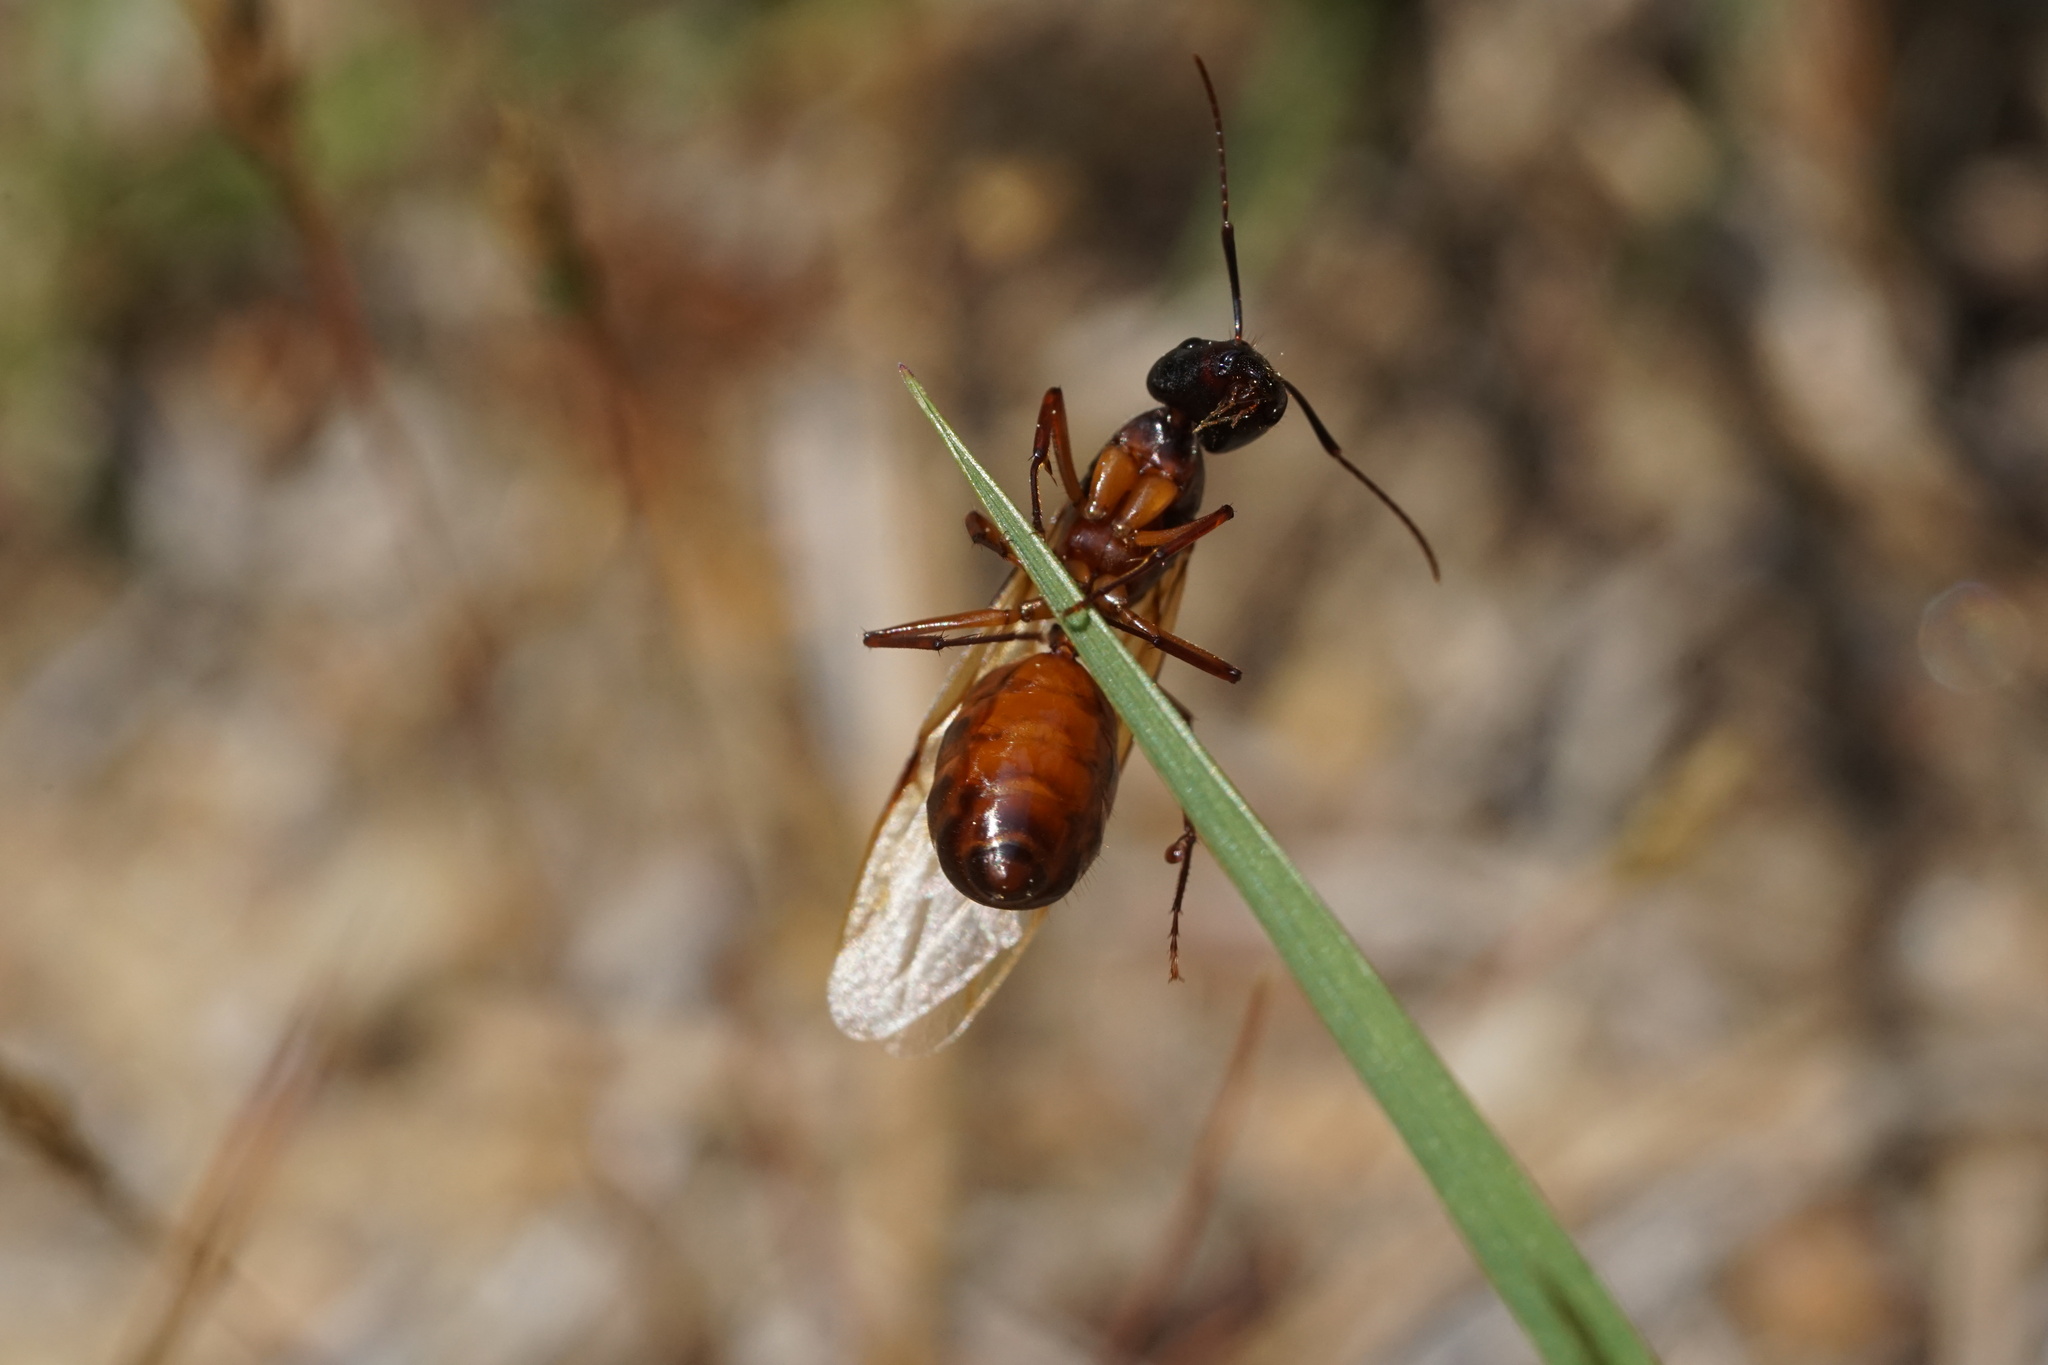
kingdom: Animalia
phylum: Arthropoda
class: Insecta
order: Hymenoptera
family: Formicidae
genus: Camponotus
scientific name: Camponotus americanus
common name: American carpenter ant
